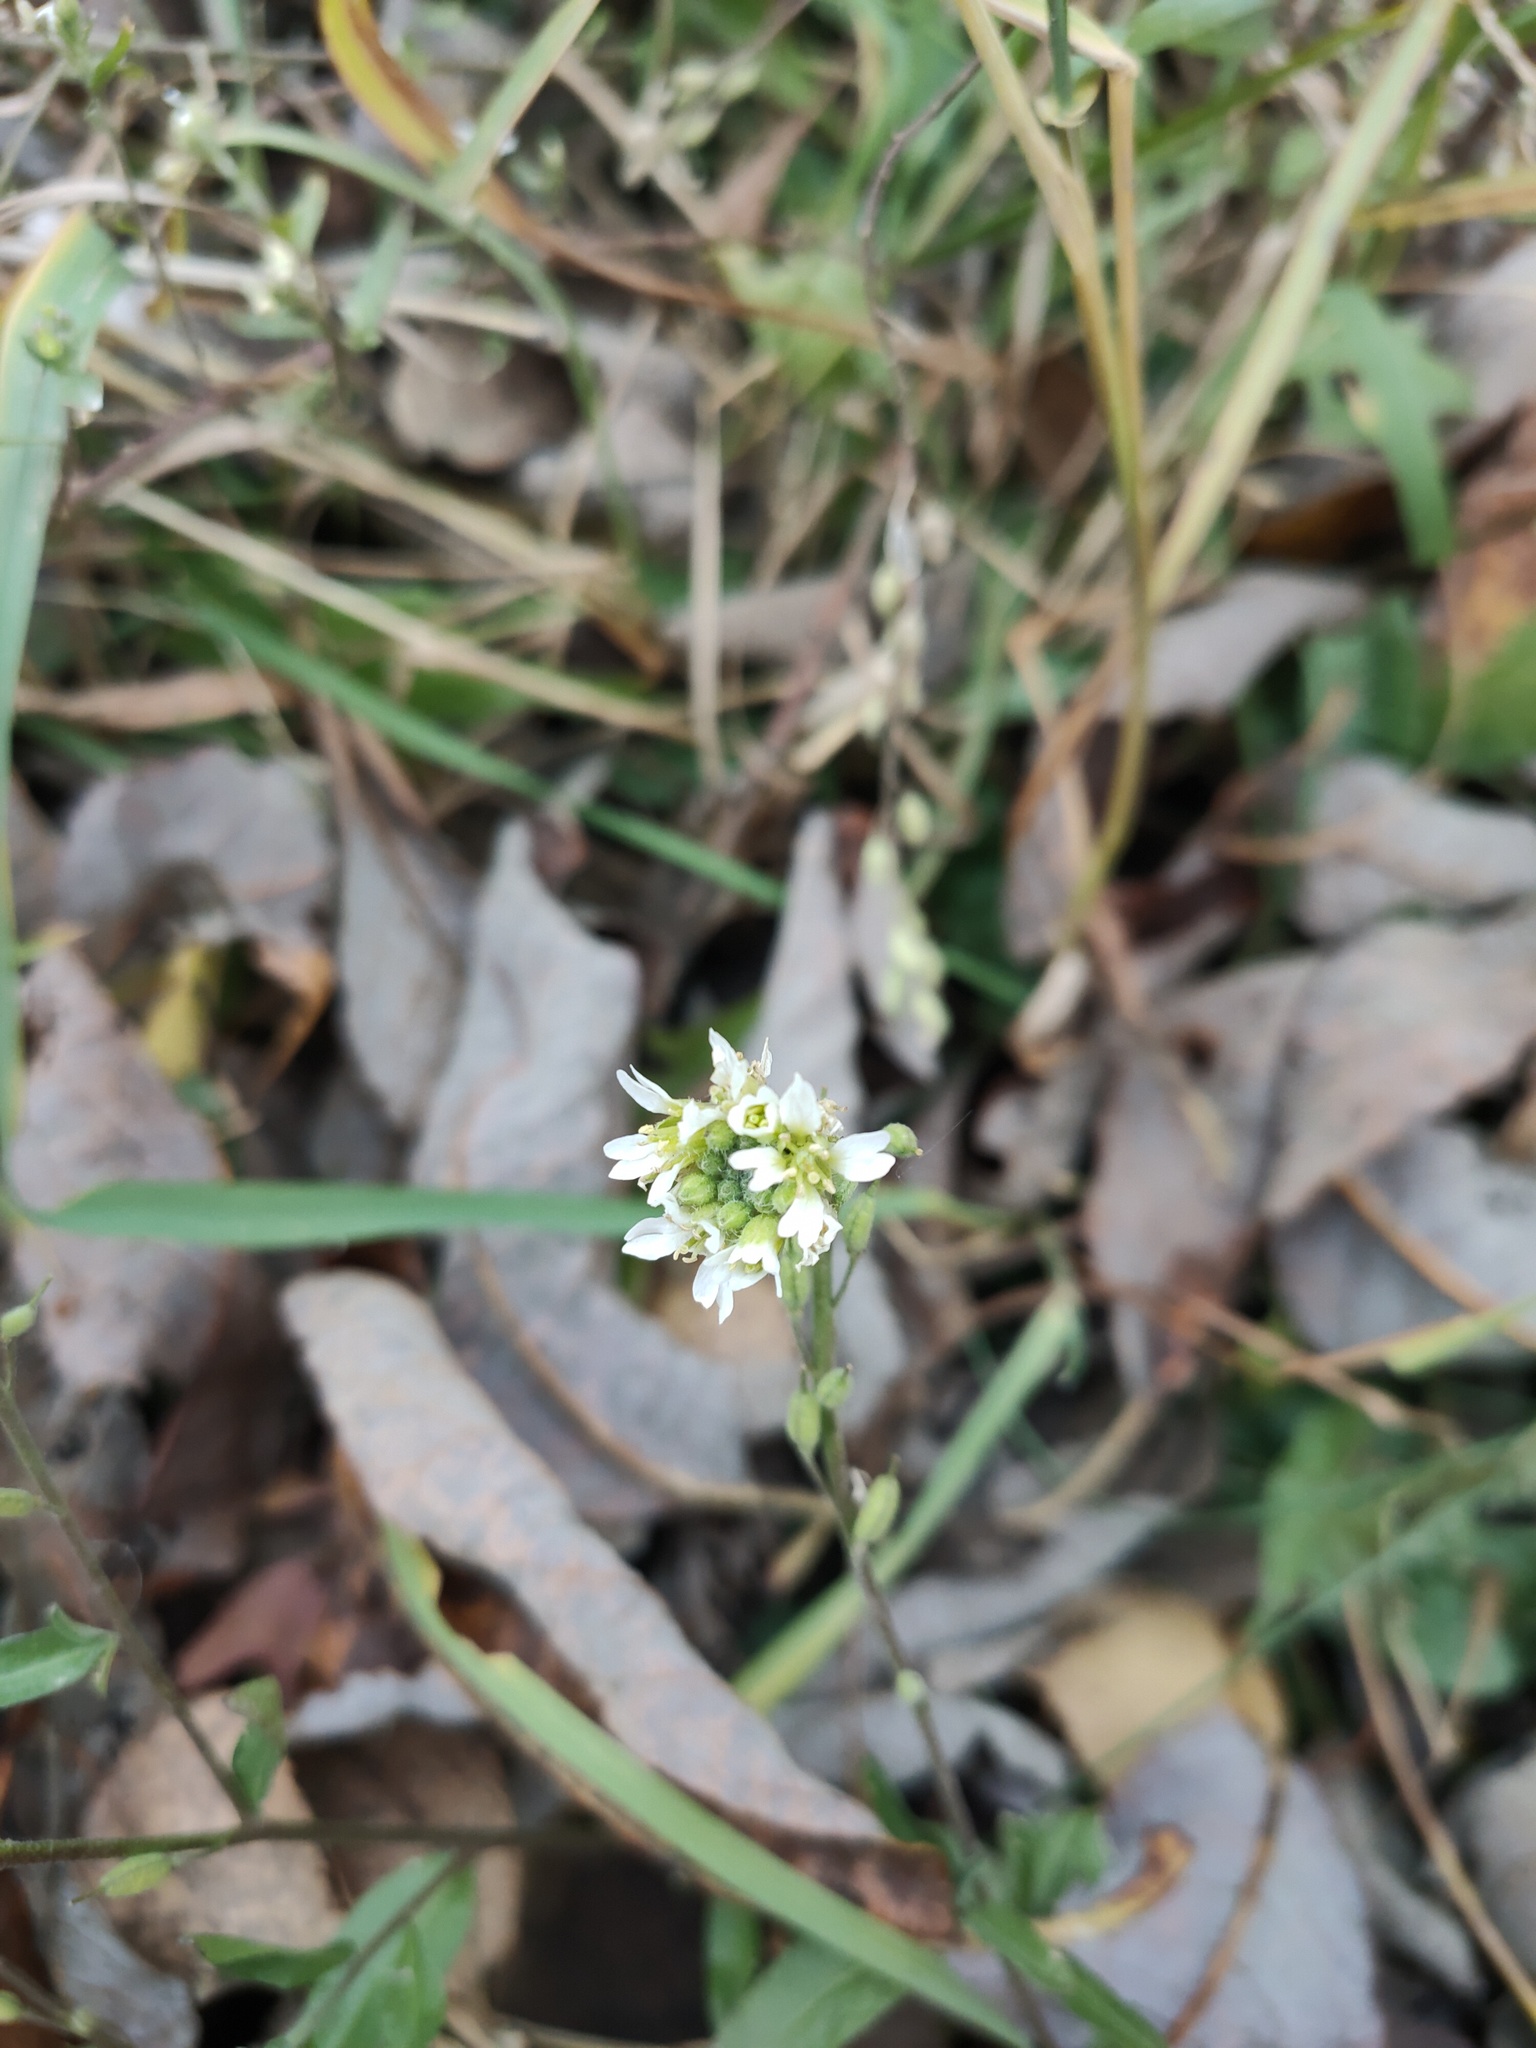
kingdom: Plantae
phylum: Tracheophyta
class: Magnoliopsida
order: Brassicales
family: Brassicaceae
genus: Berteroa
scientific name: Berteroa incana
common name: Hoary alison
